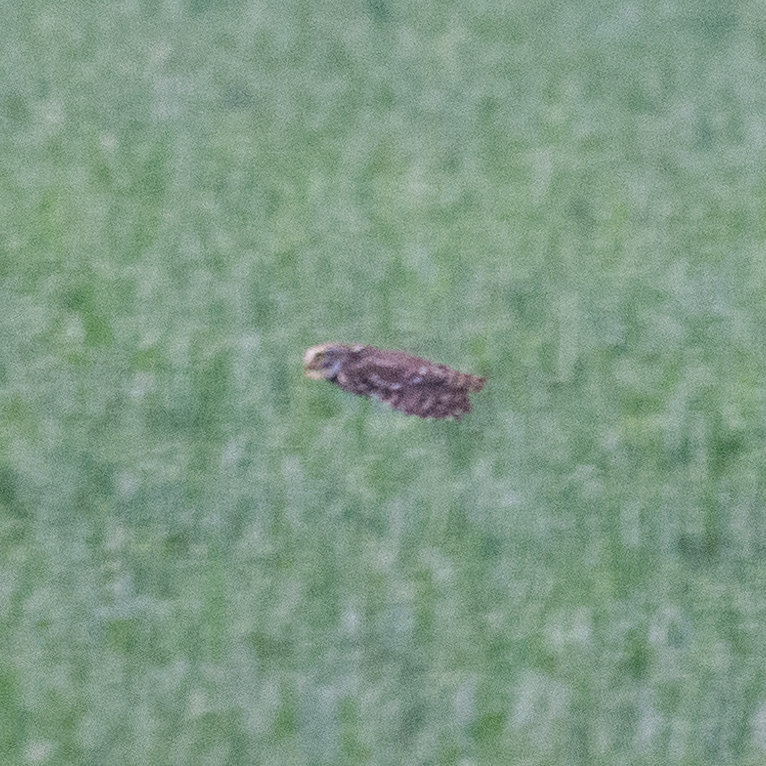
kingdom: Animalia
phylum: Chordata
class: Aves
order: Strigiformes
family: Strigidae
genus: Athene
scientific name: Athene noctua
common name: Little owl
